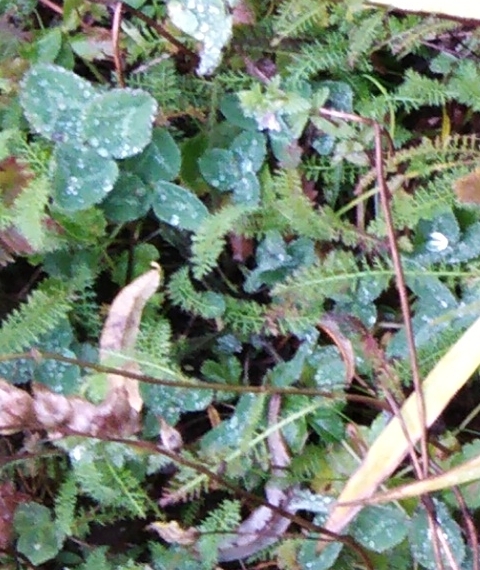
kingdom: Plantae
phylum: Tracheophyta
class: Magnoliopsida
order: Fabales
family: Fabaceae
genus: Trifolium
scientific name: Trifolium pratense
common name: Red clover
